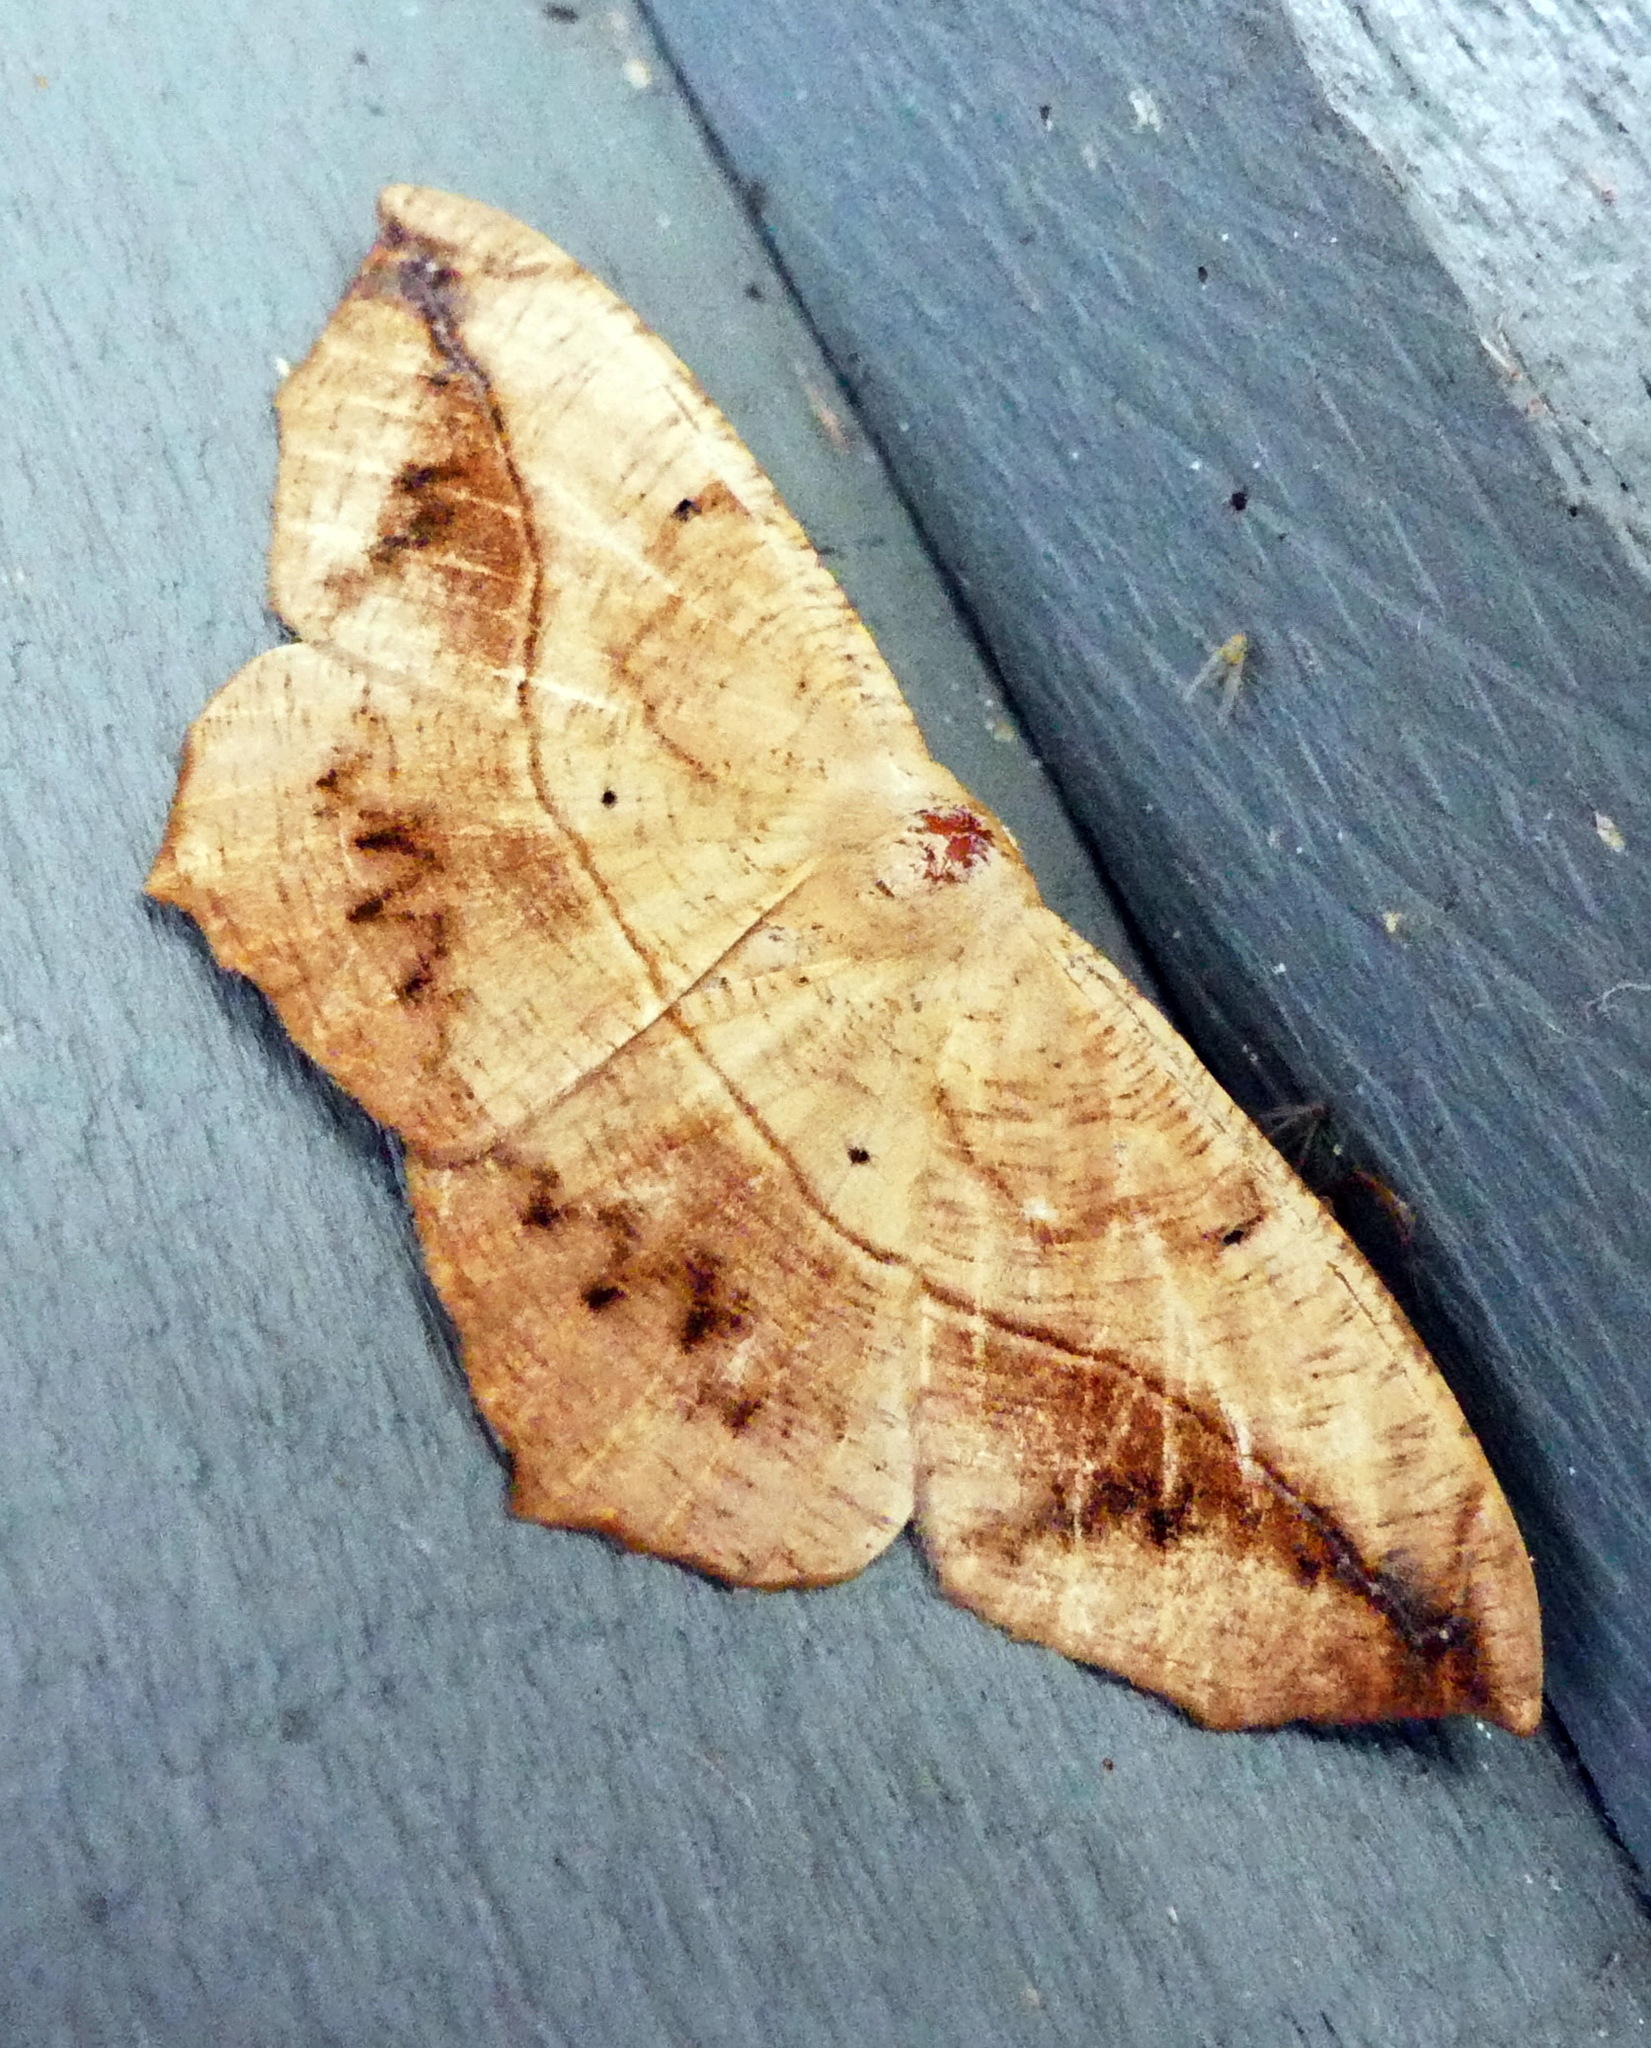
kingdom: Animalia
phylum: Arthropoda
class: Insecta
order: Lepidoptera
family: Geometridae
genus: Prochoerodes
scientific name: Prochoerodes lineola
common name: Large maple spanworm
